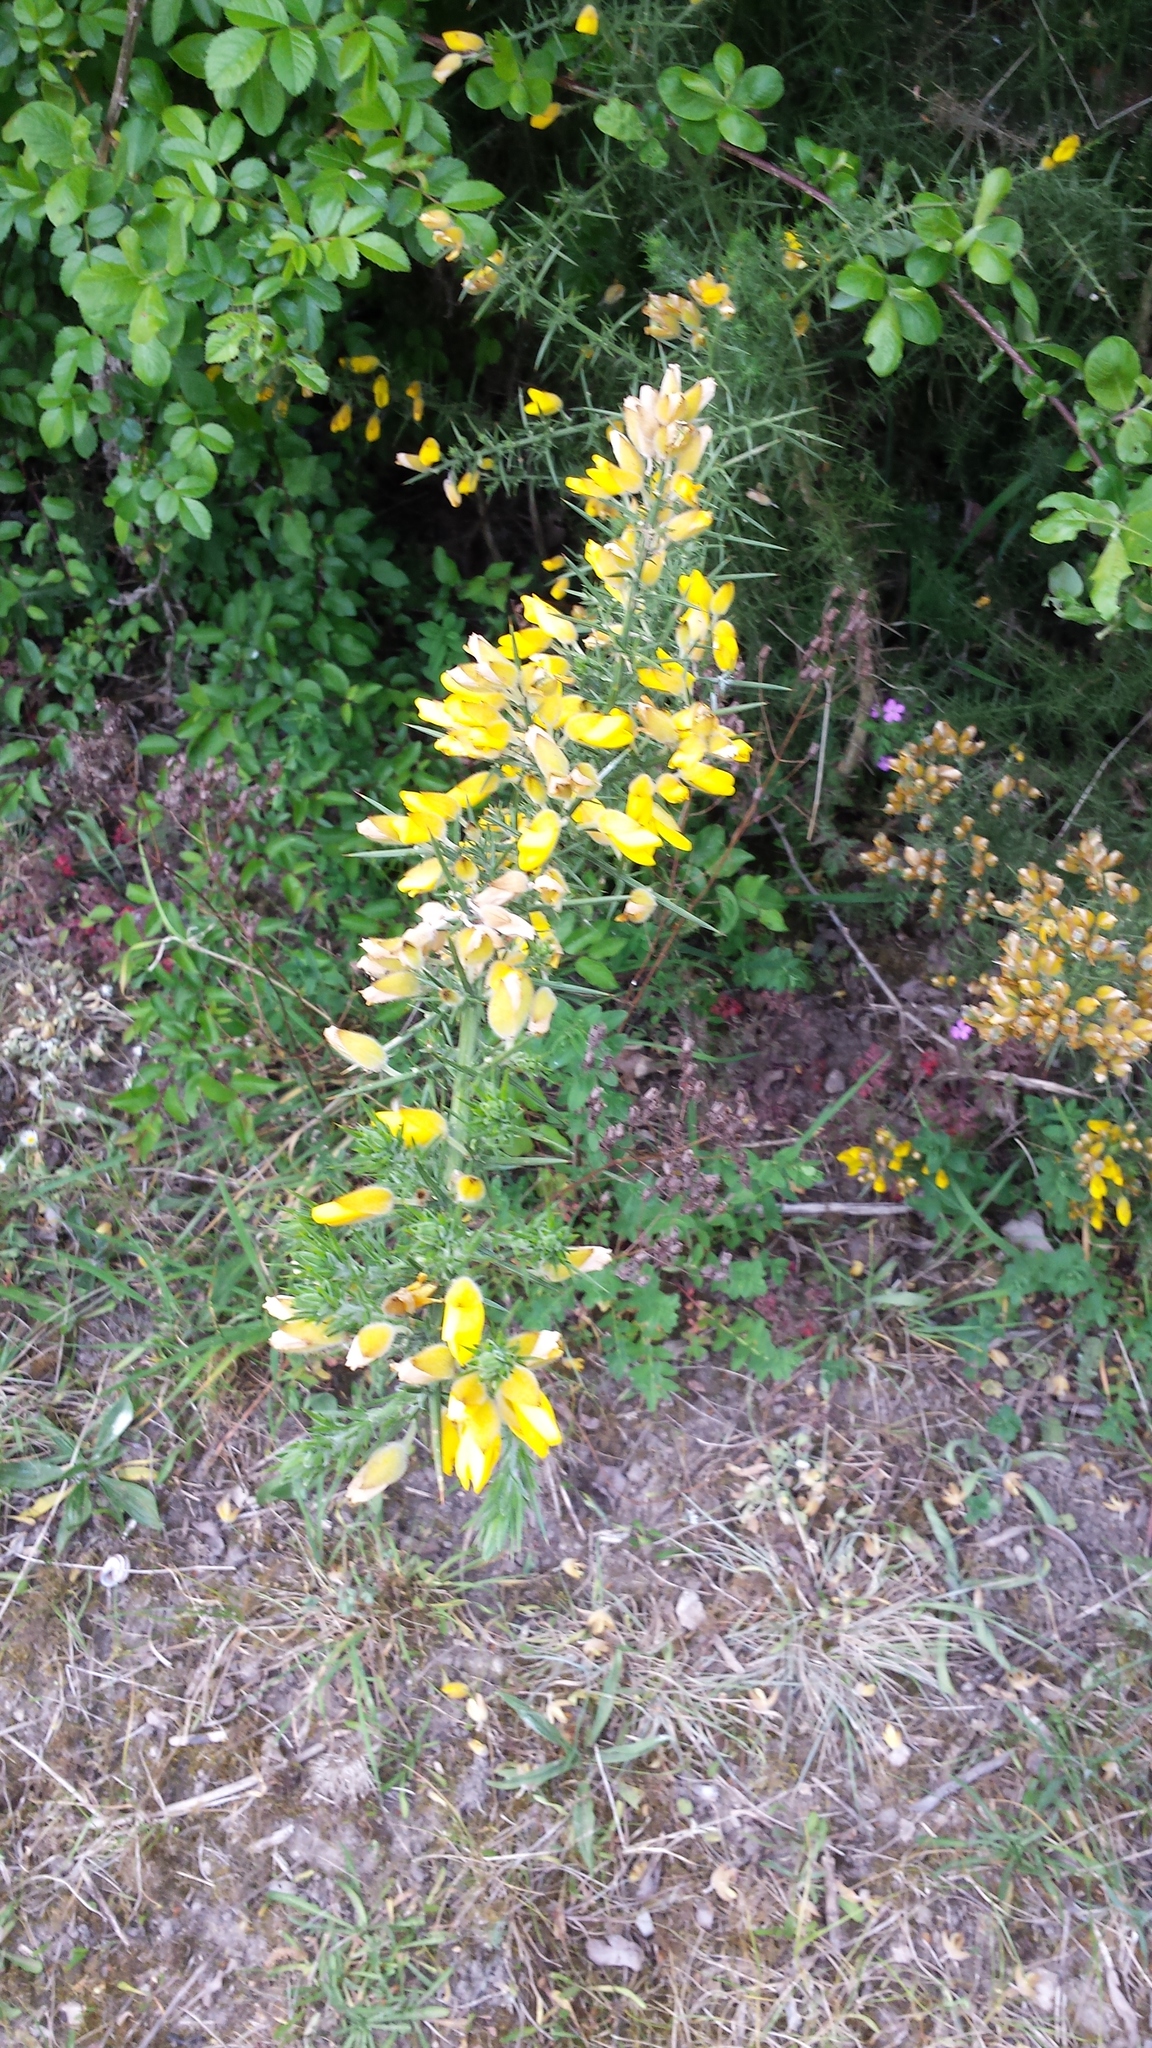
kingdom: Plantae
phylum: Tracheophyta
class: Magnoliopsida
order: Fabales
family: Fabaceae
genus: Ulex
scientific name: Ulex europaeus
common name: Common gorse
